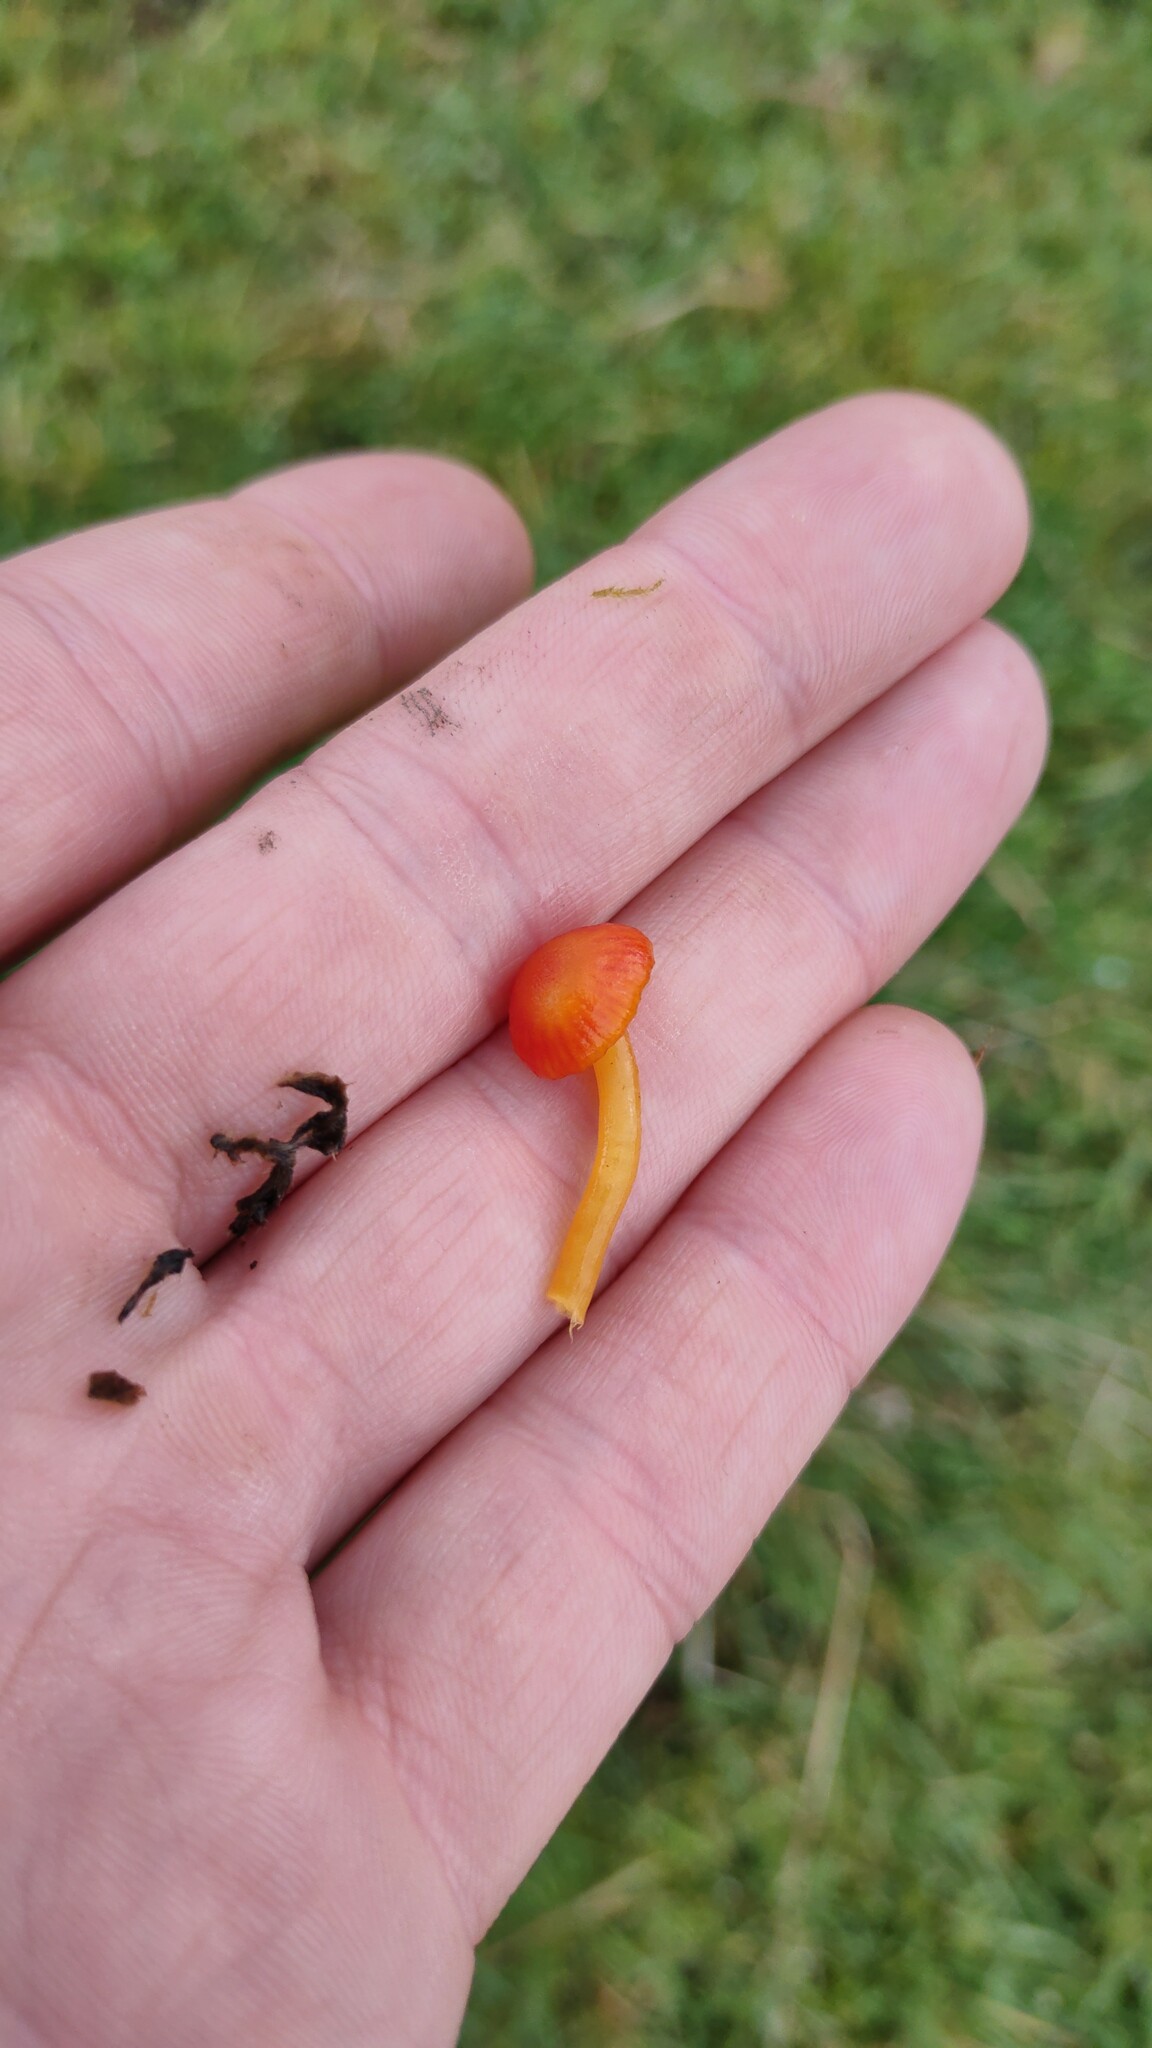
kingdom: Fungi
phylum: Basidiomycota
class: Agaricomycetes
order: Agaricales
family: Hygrophoraceae
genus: Hygrocybe
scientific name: Hygrocybe insipida
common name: Spangle waxcap
